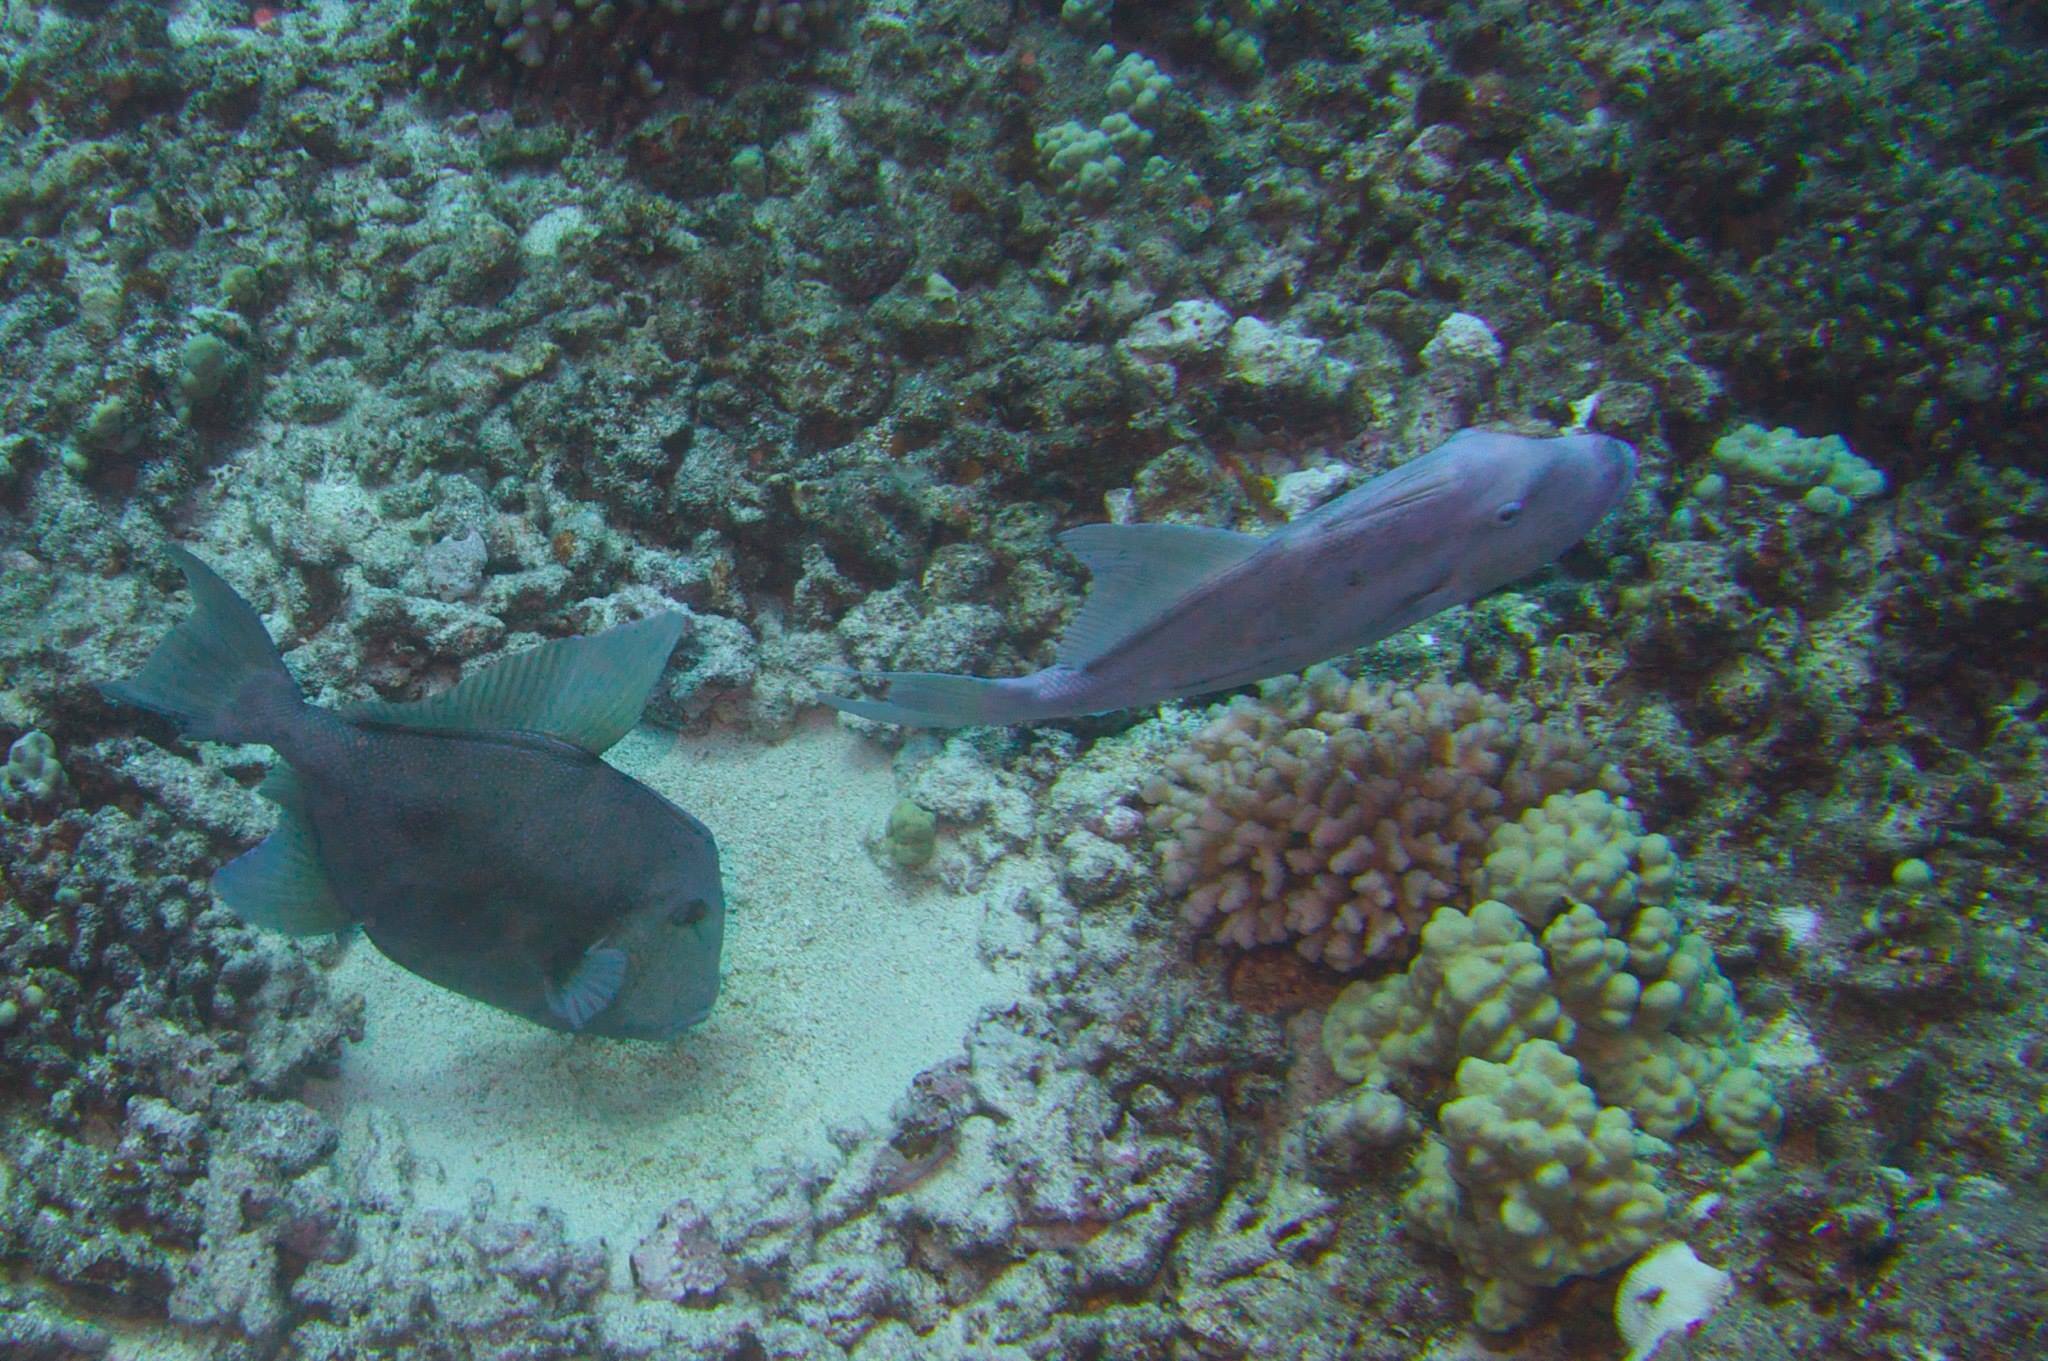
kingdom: Animalia
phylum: Chordata
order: Tetraodontiformes
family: Balistidae
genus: Balistes
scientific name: Balistes polylepis
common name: Finescale triggerfish
